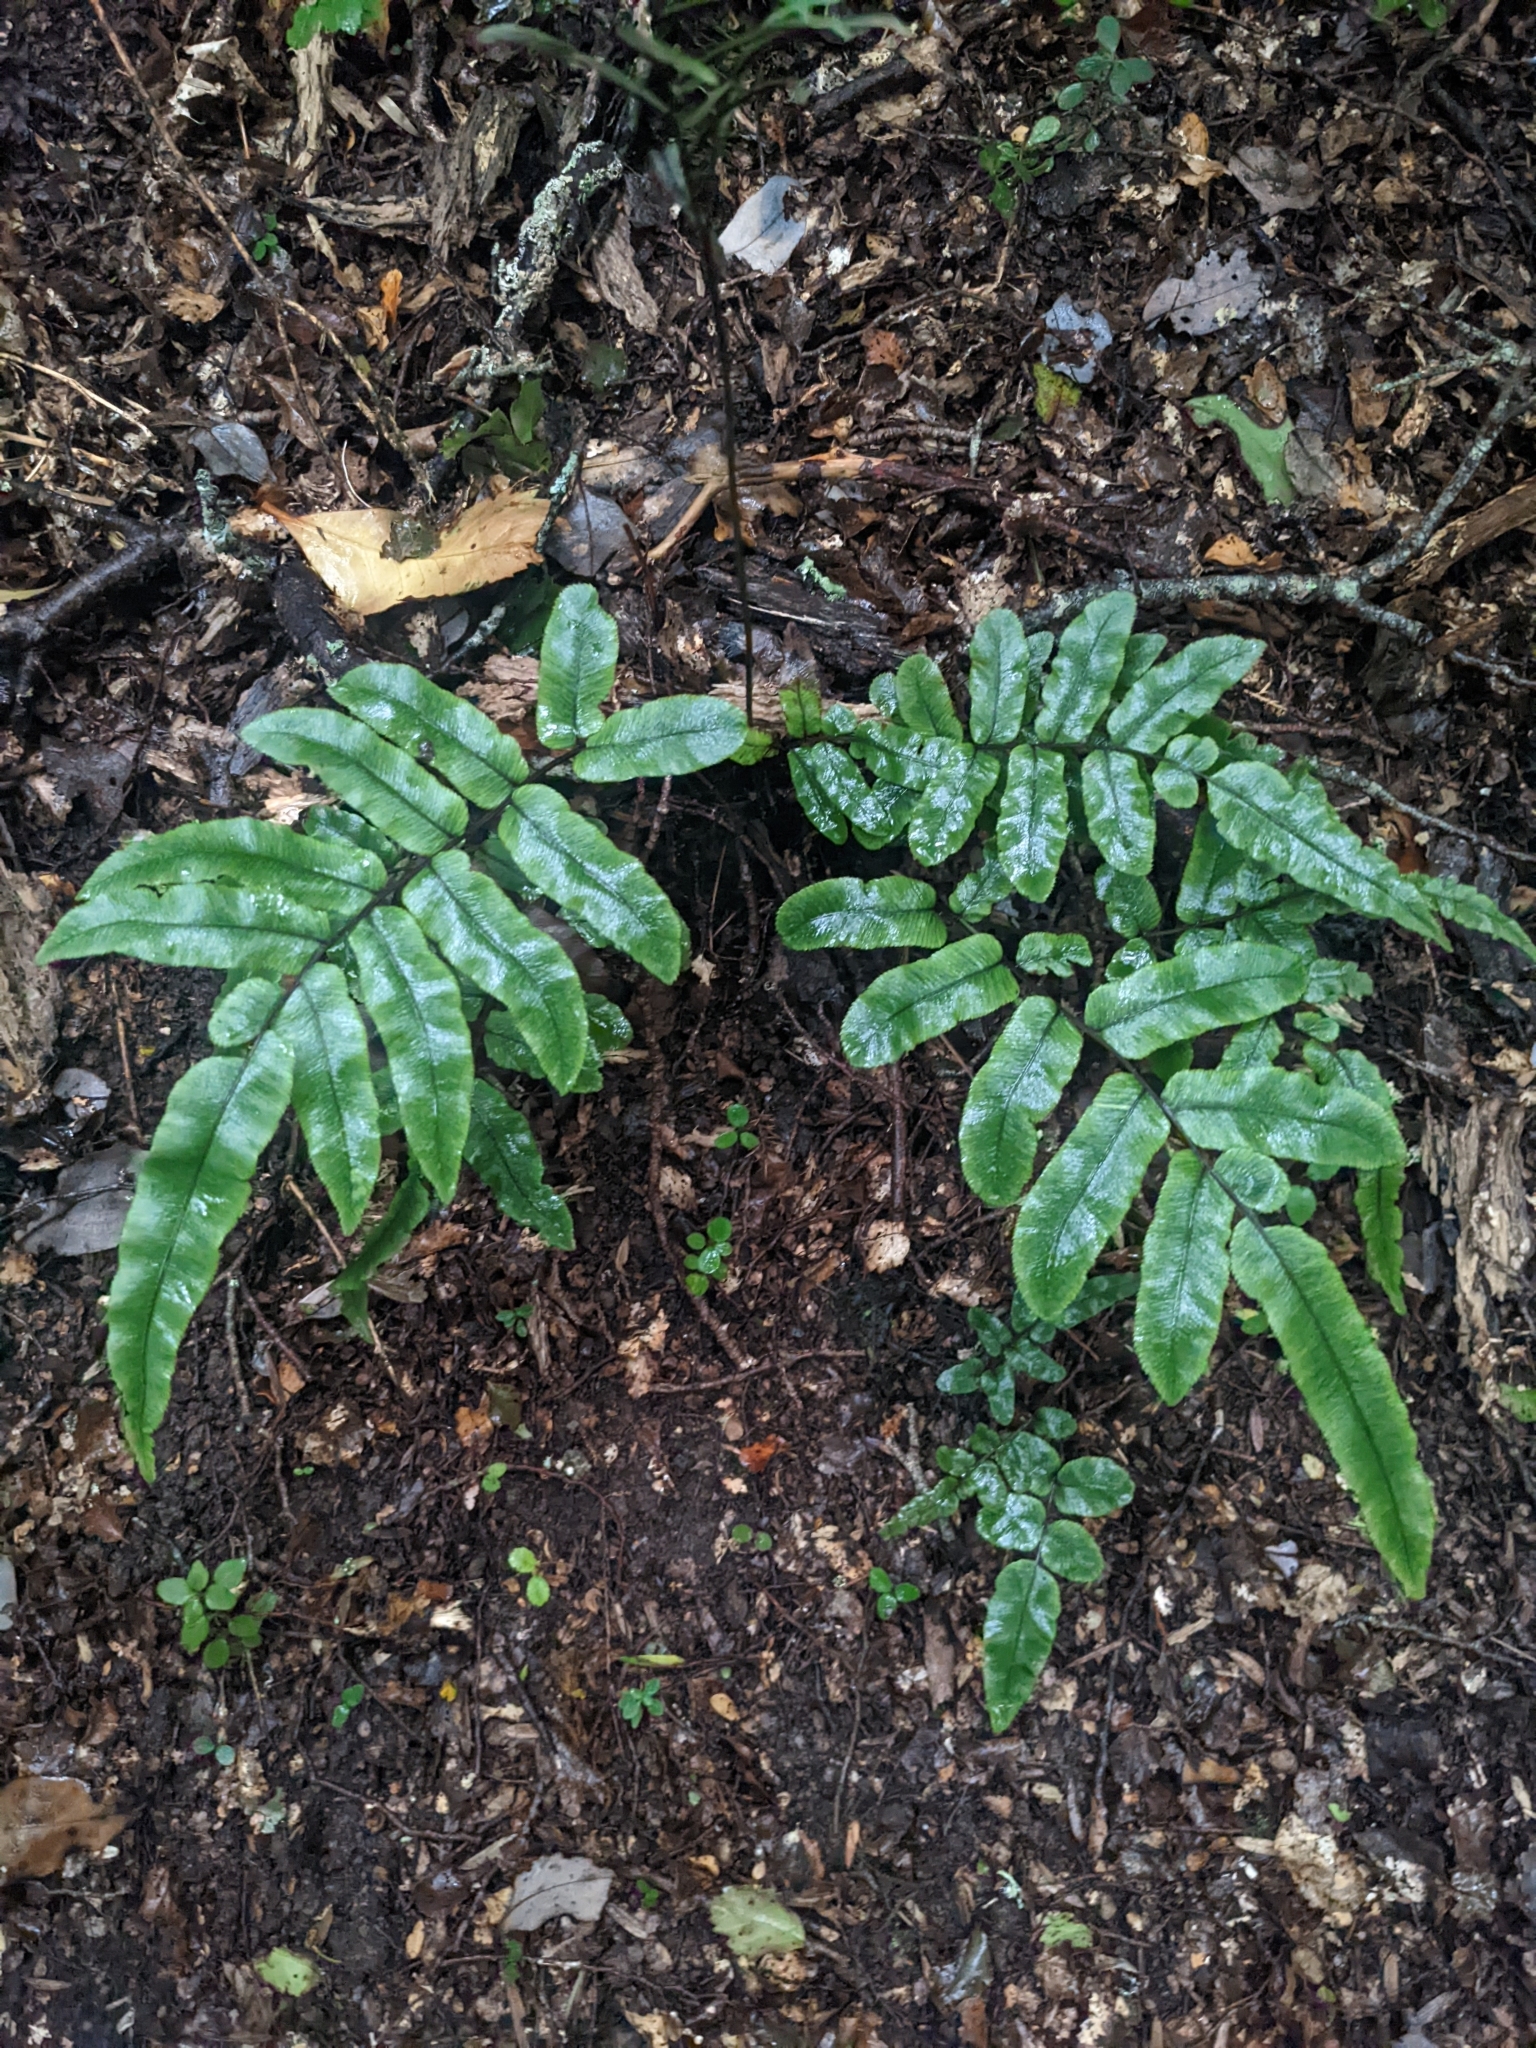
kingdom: Plantae
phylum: Tracheophyta
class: Polypodiopsida
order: Polypodiales
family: Blechnaceae
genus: Parablechnum
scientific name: Parablechnum procerum
